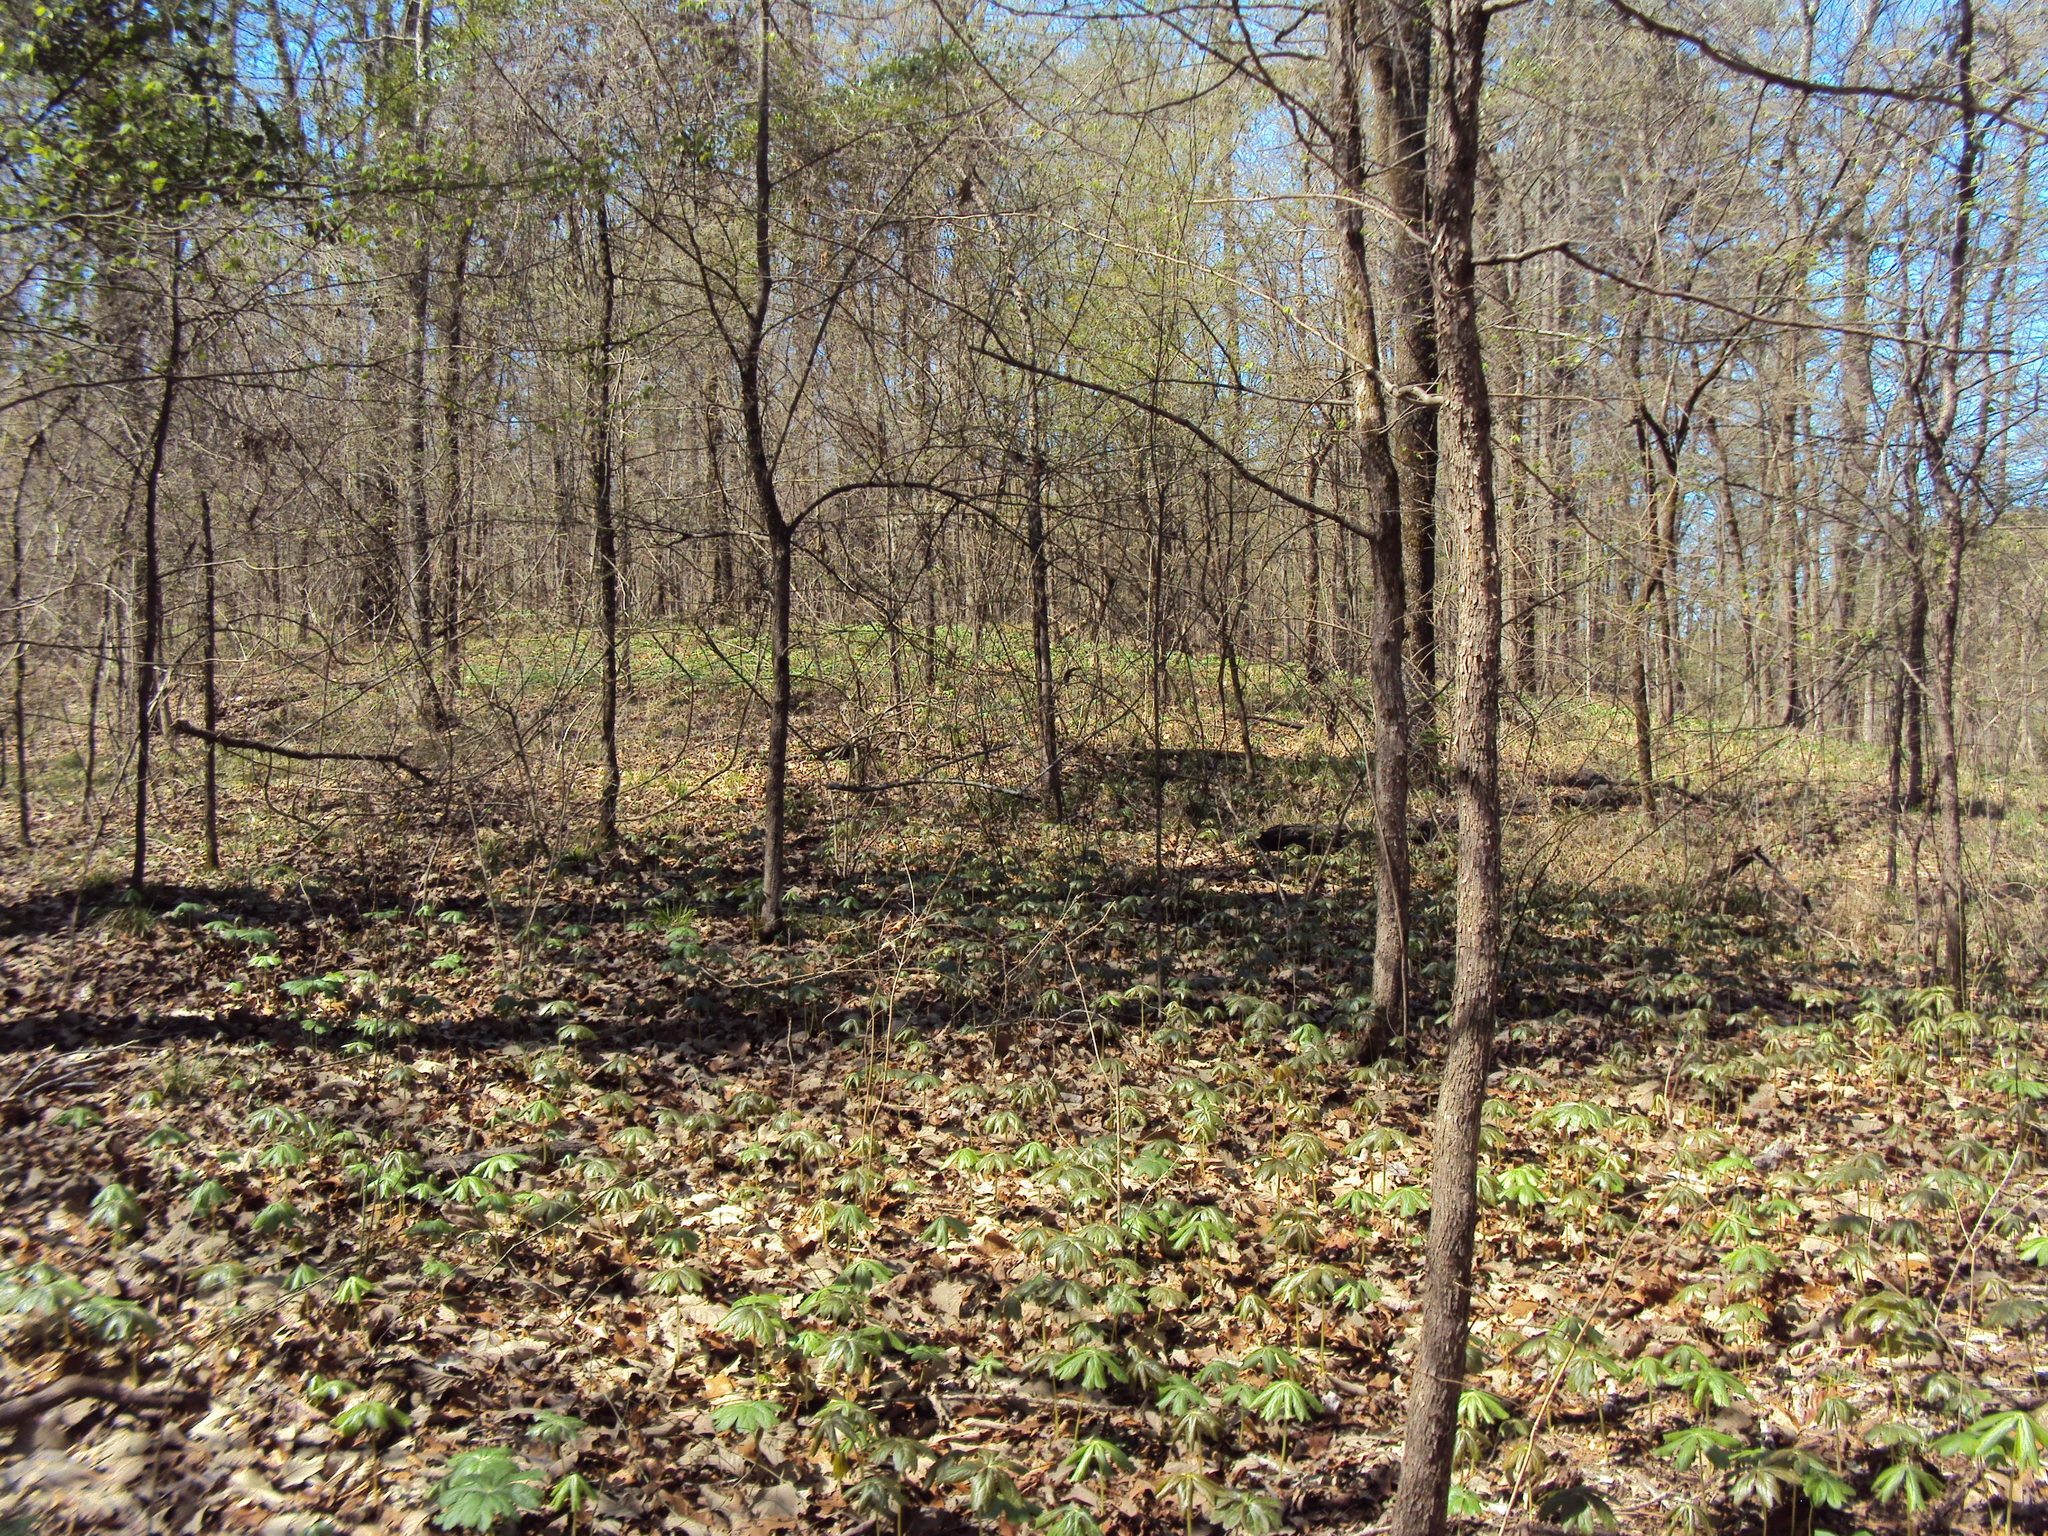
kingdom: Plantae
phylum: Tracheophyta
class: Magnoliopsida
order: Ranunculales
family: Berberidaceae
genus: Podophyllum
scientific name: Podophyllum peltatum
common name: Wild mandrake
